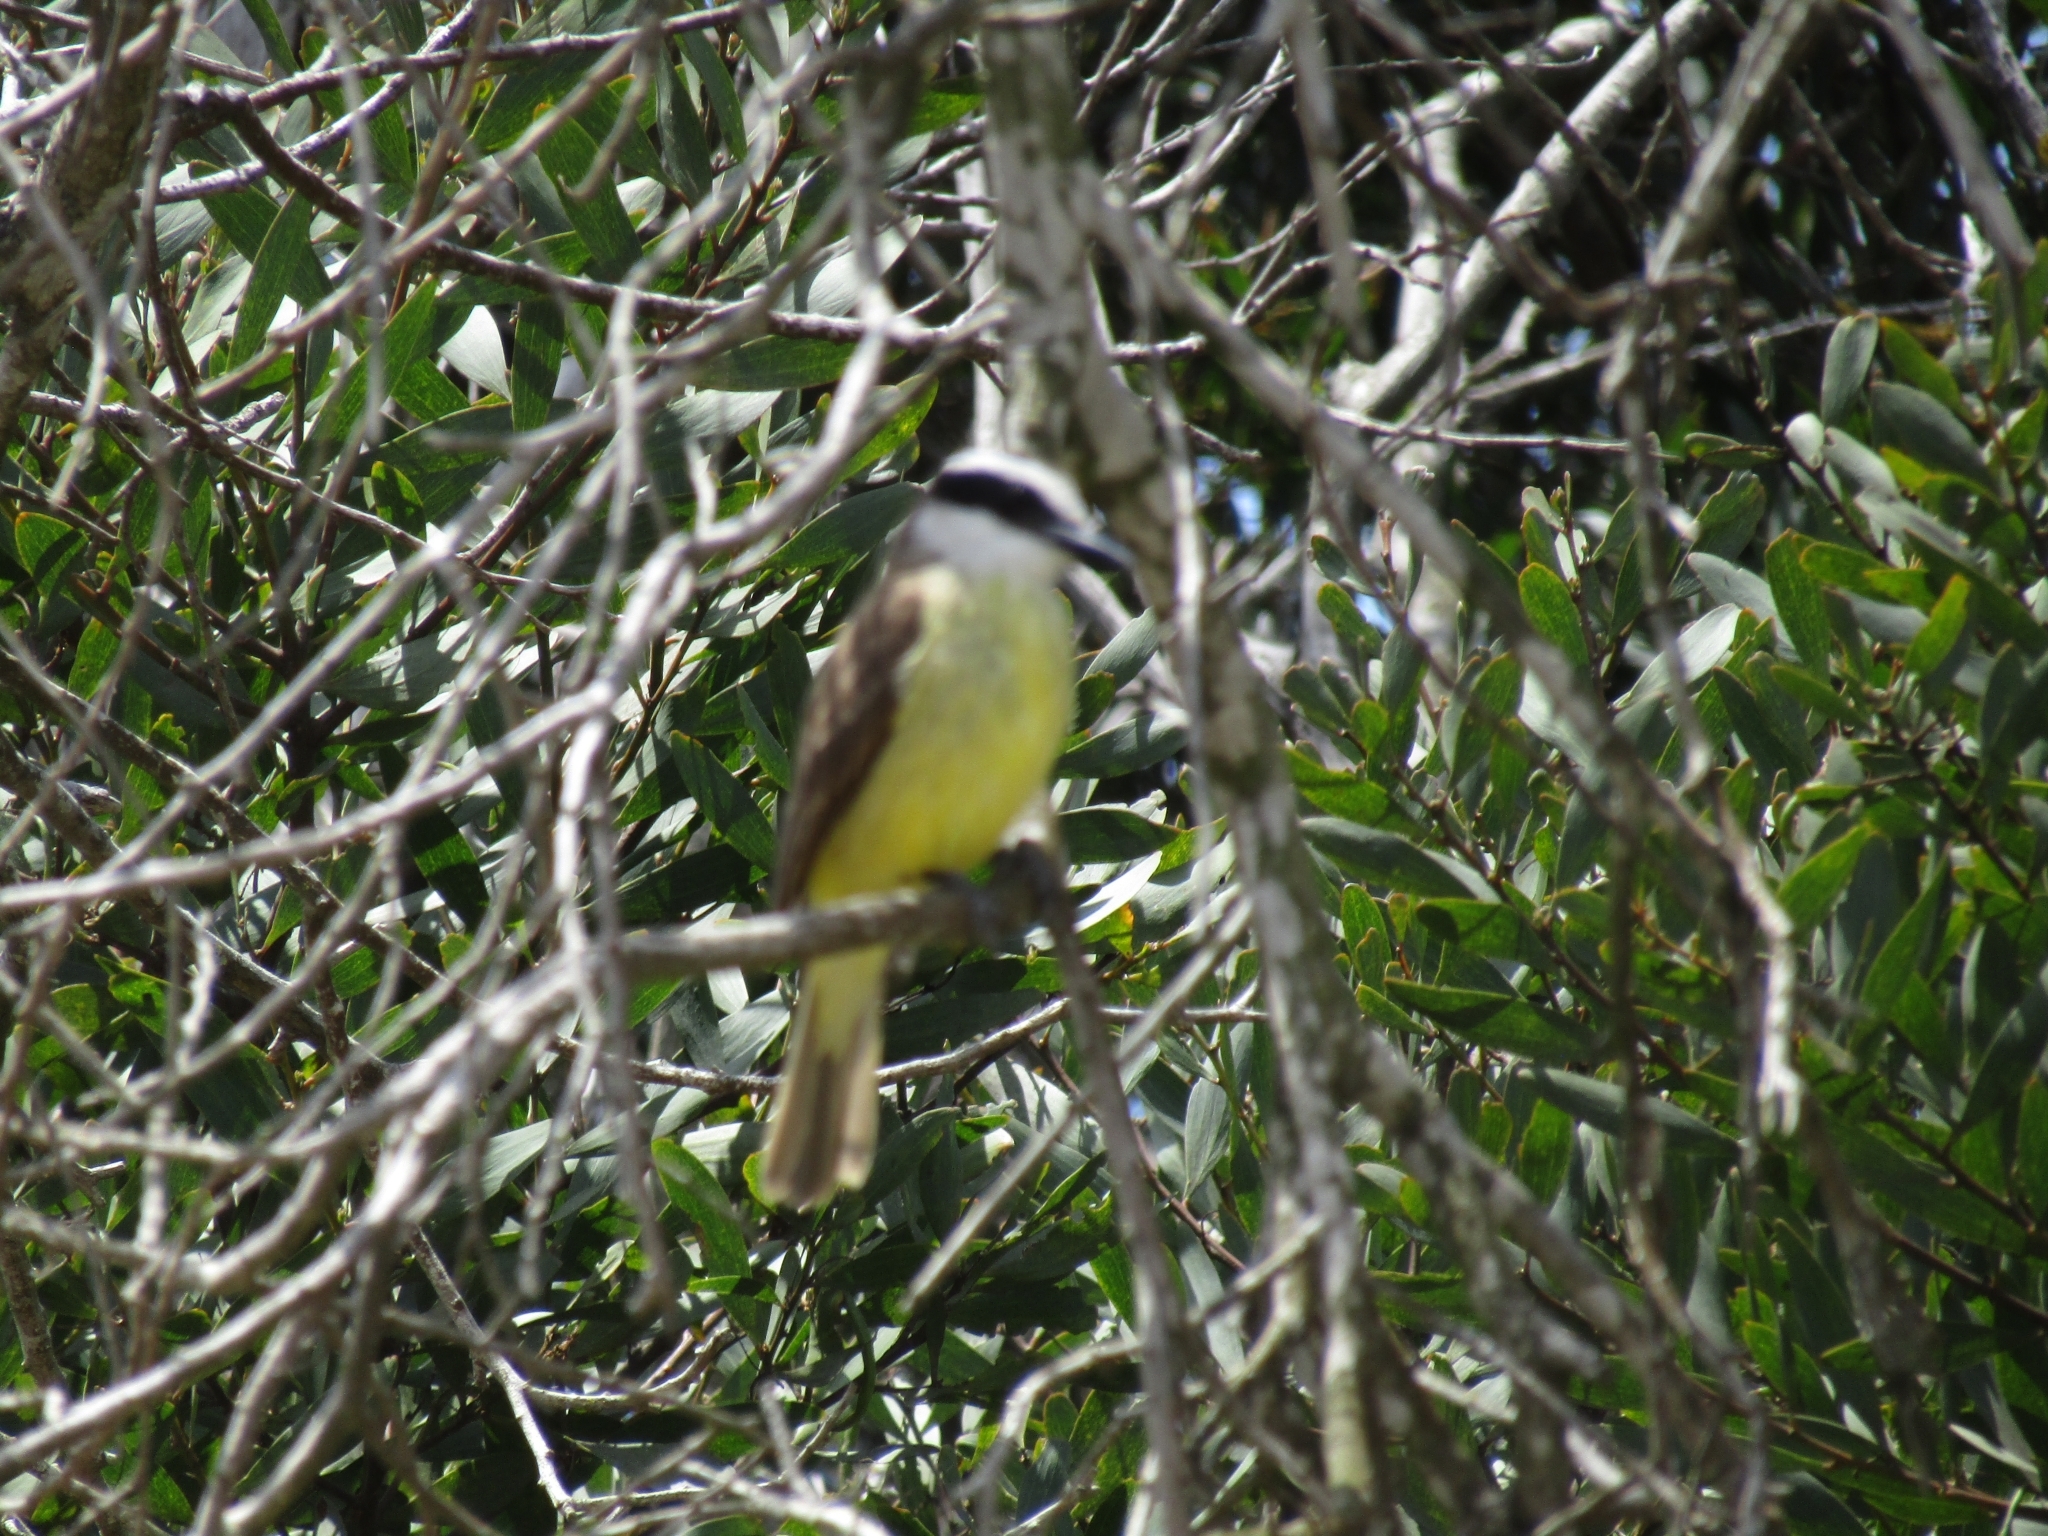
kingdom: Animalia
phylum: Chordata
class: Aves
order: Passeriformes
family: Tyrannidae
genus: Pitangus
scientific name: Pitangus sulphuratus
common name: Great kiskadee
